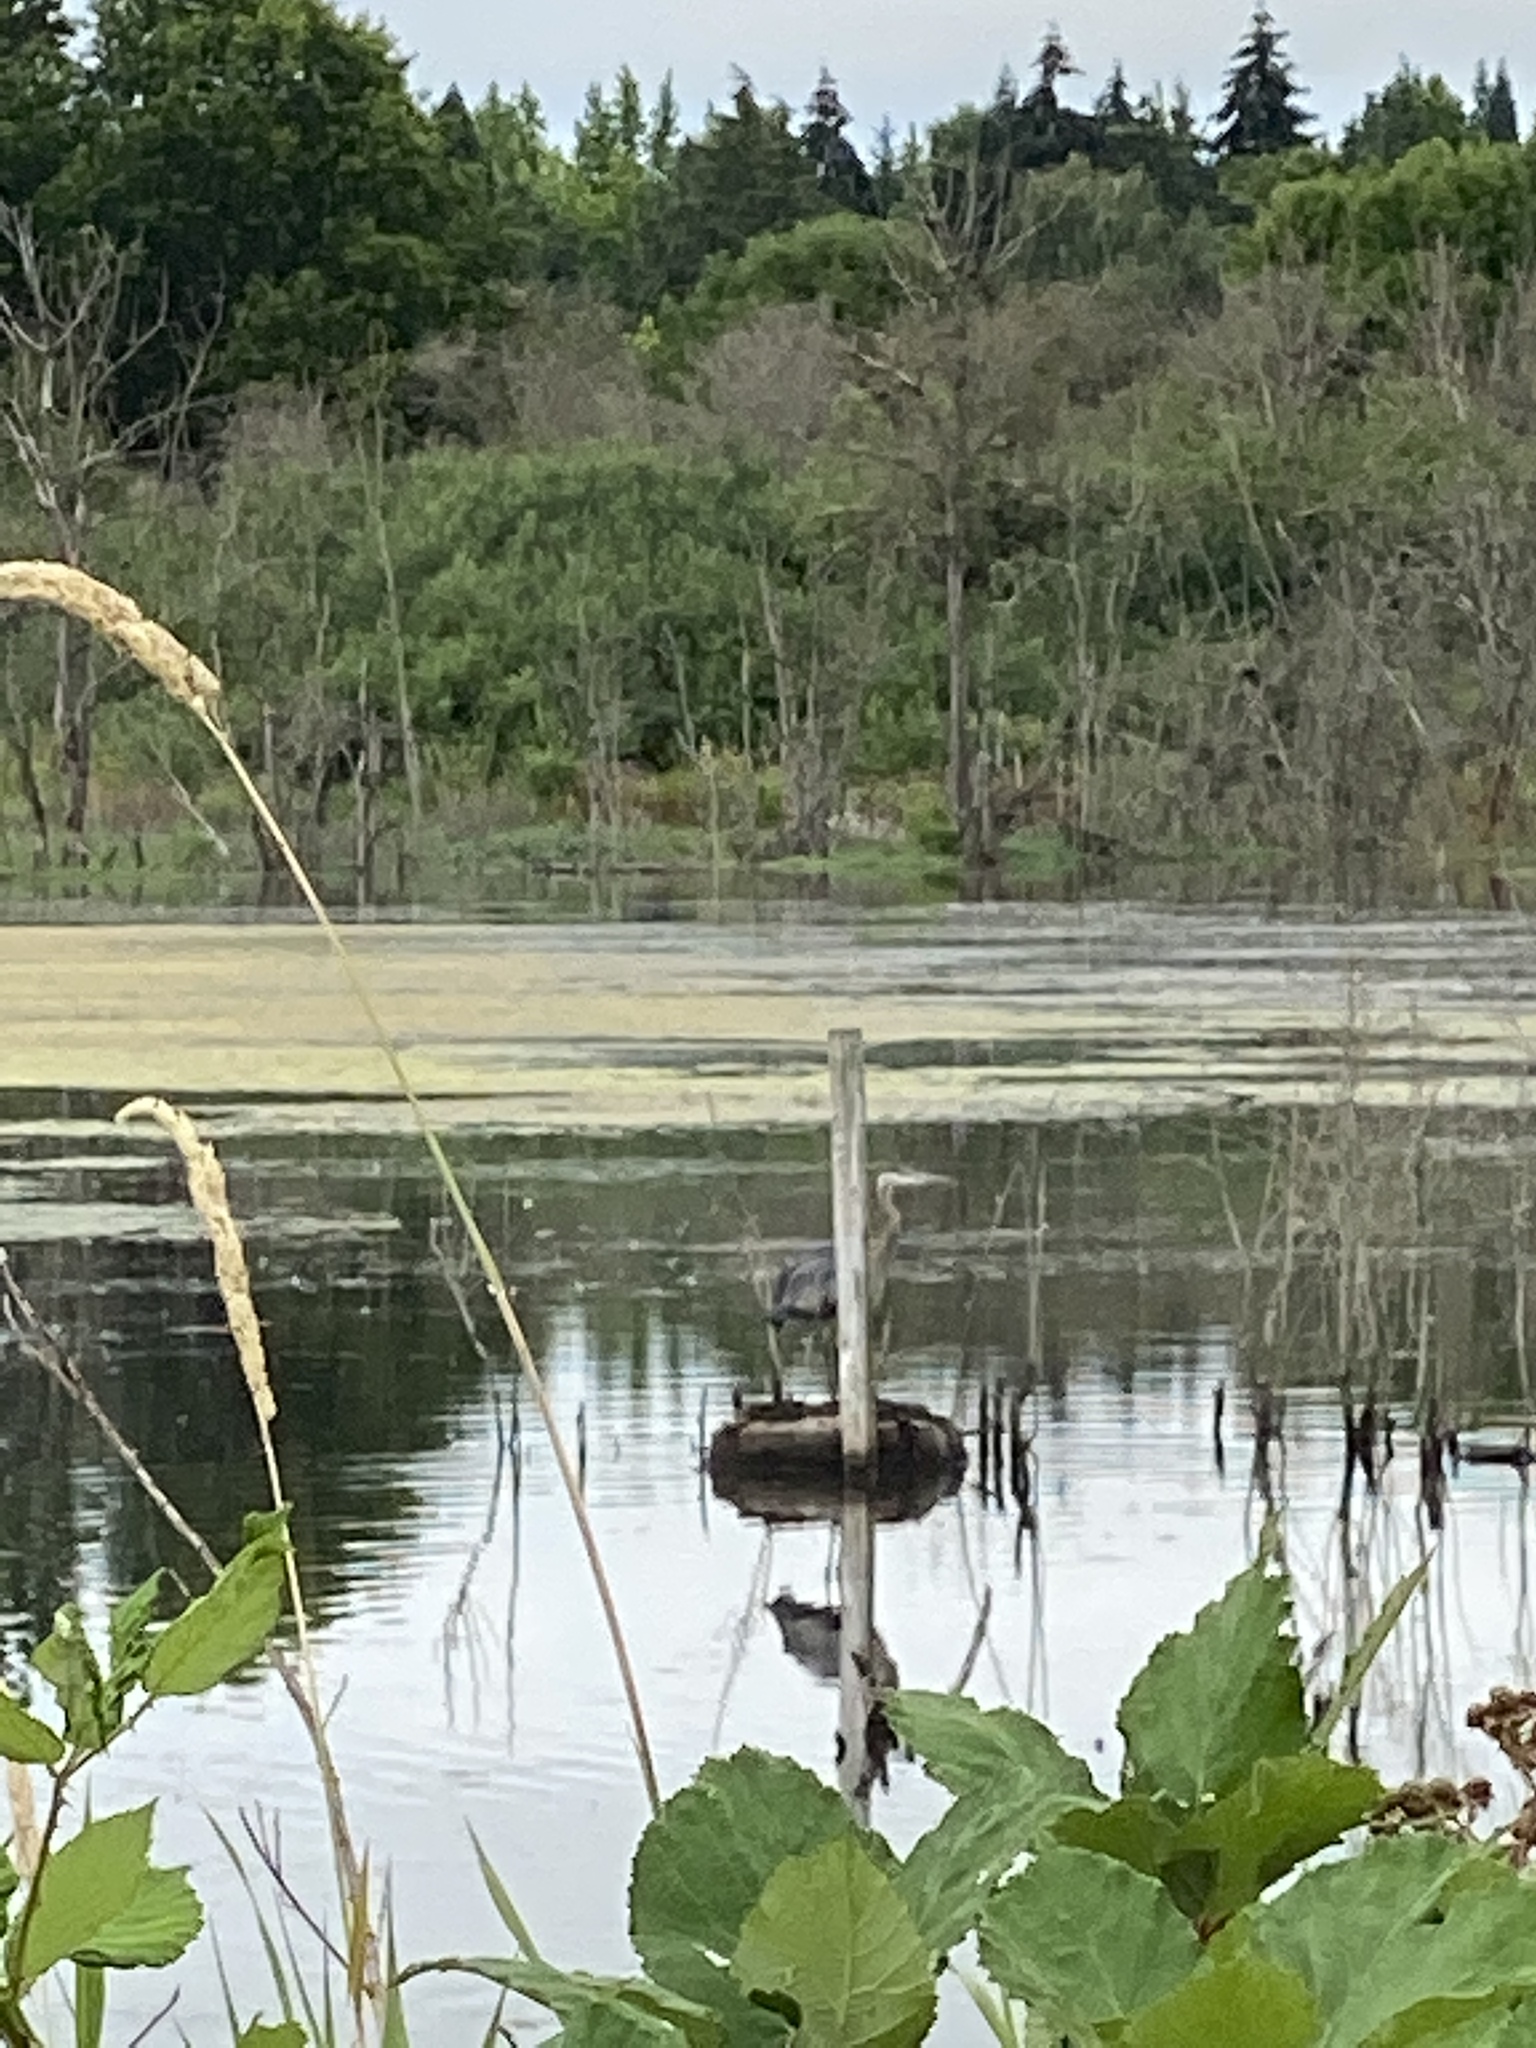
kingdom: Animalia
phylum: Chordata
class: Aves
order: Pelecaniformes
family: Ardeidae
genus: Ardea
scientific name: Ardea herodias
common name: Great blue heron
